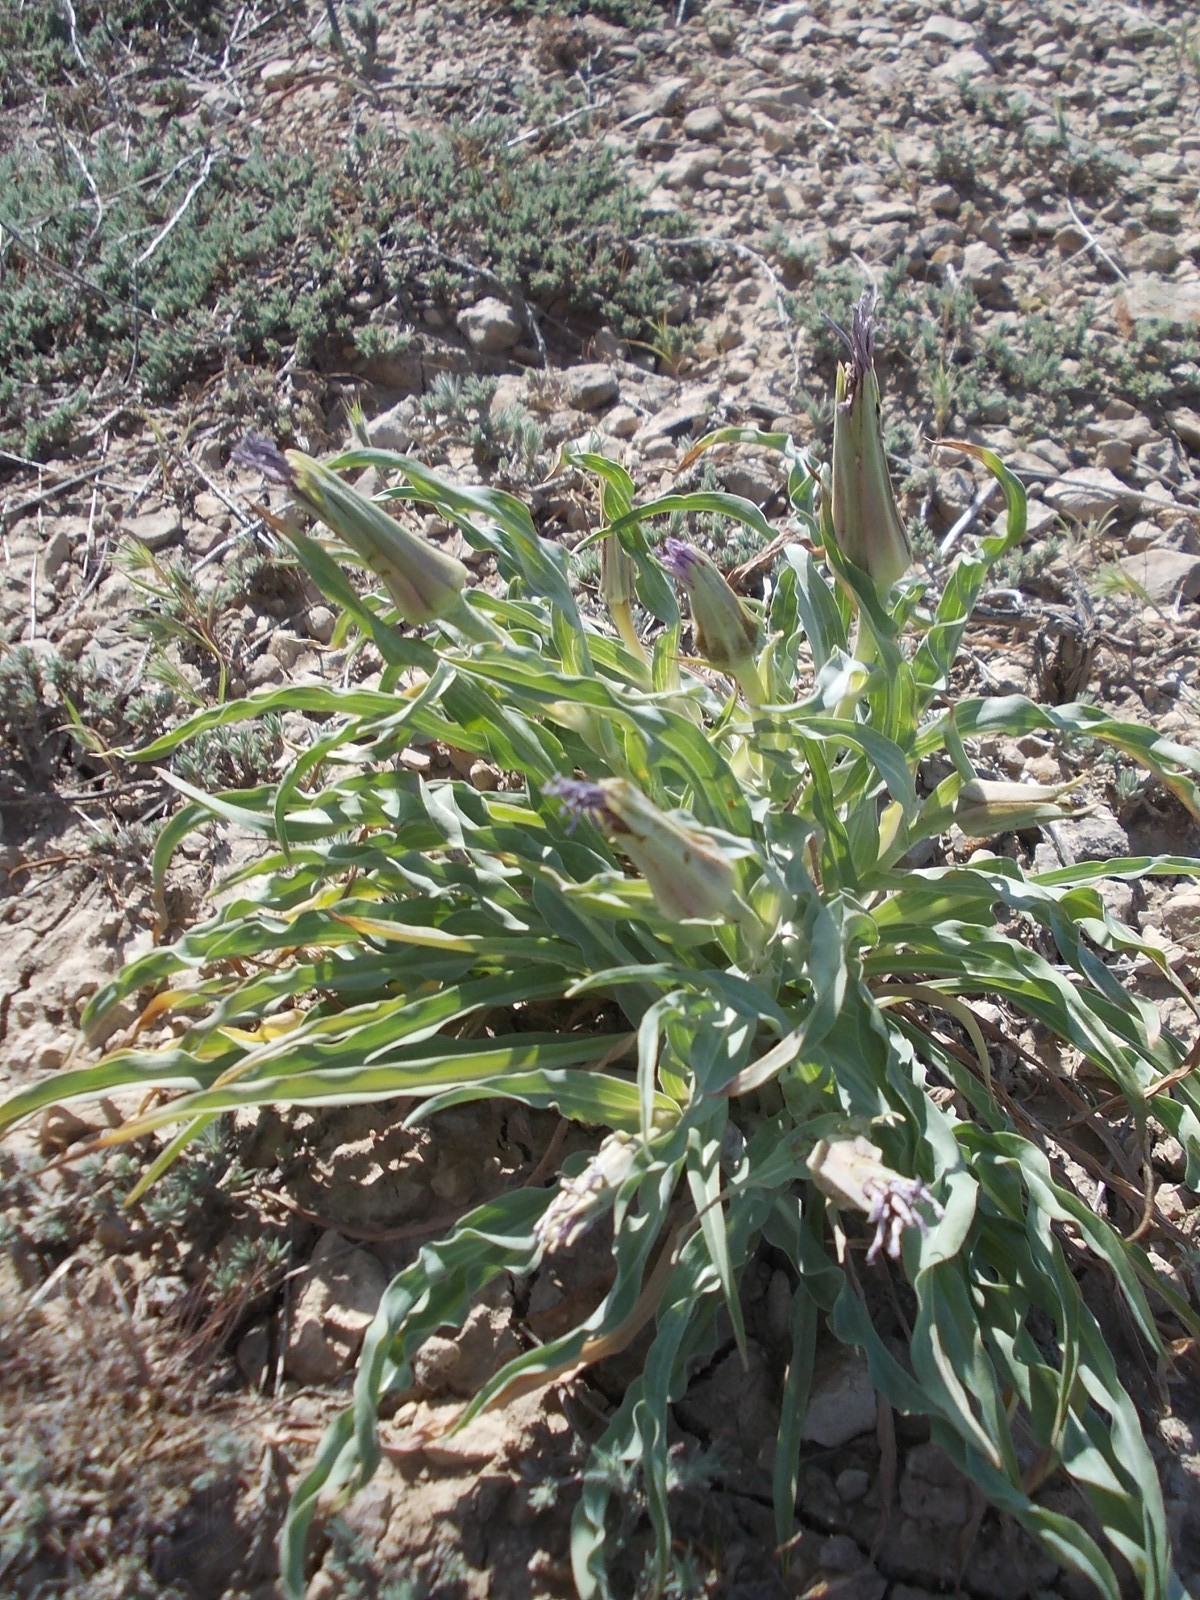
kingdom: Plantae
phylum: Tracheophyta
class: Magnoliopsida
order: Asterales
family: Asteraceae
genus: Tragopogon
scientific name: Tragopogon marginifolius
